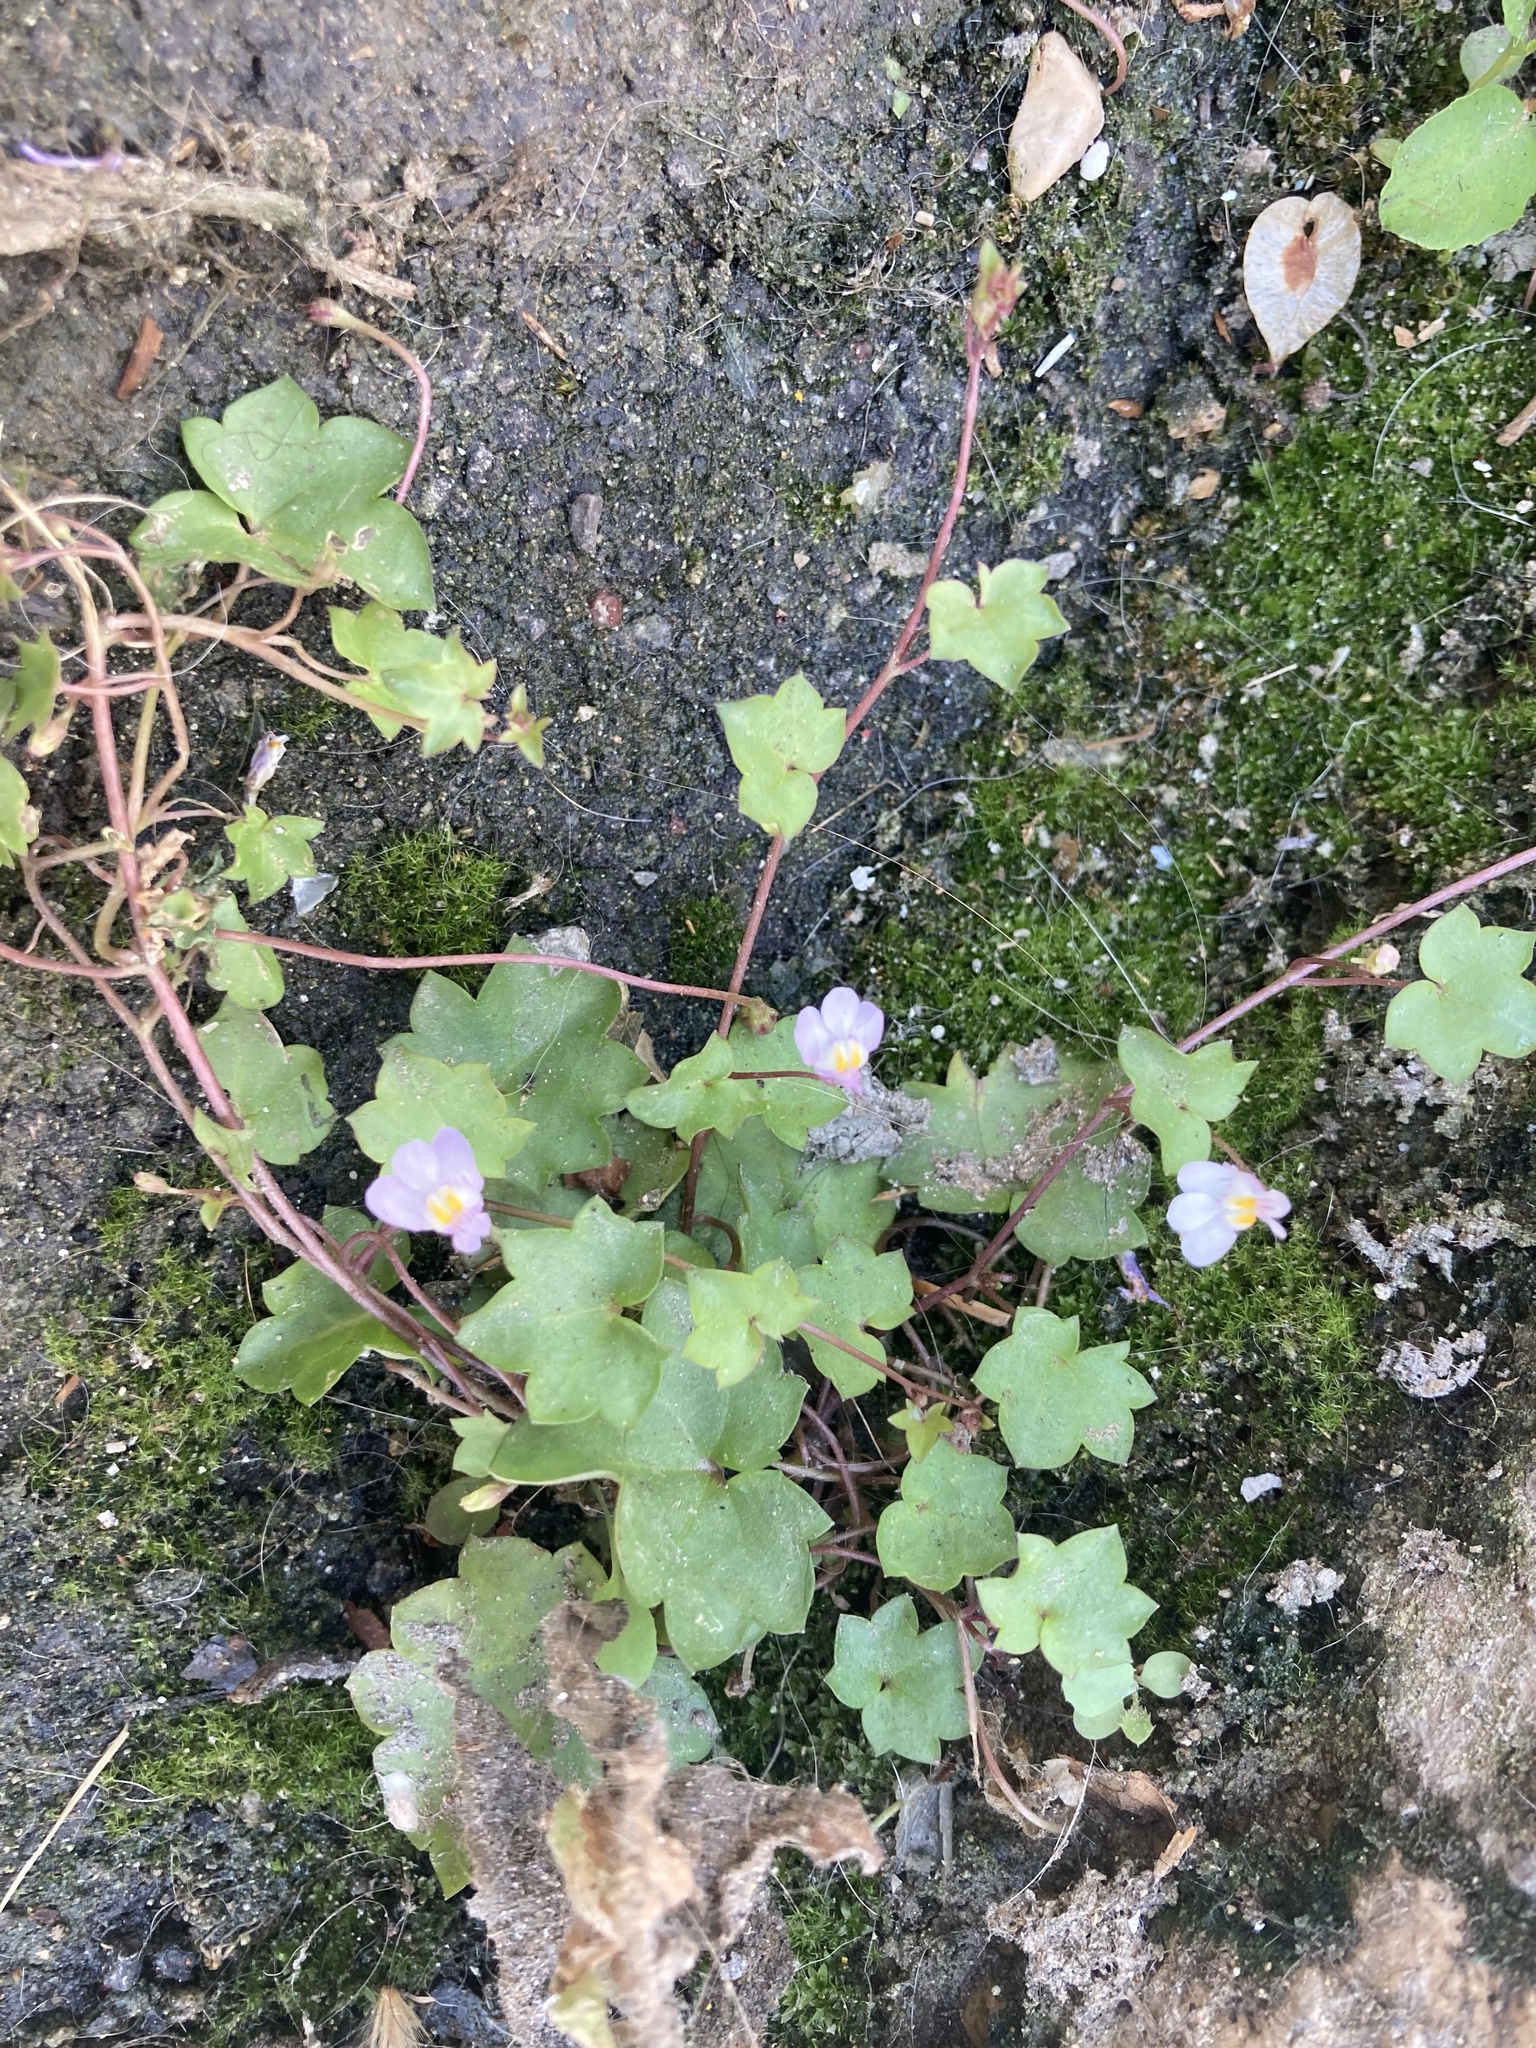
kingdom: Plantae
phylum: Tracheophyta
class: Magnoliopsida
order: Lamiales
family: Plantaginaceae
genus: Cymbalaria
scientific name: Cymbalaria muralis
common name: Ivy-leaved toadflax
